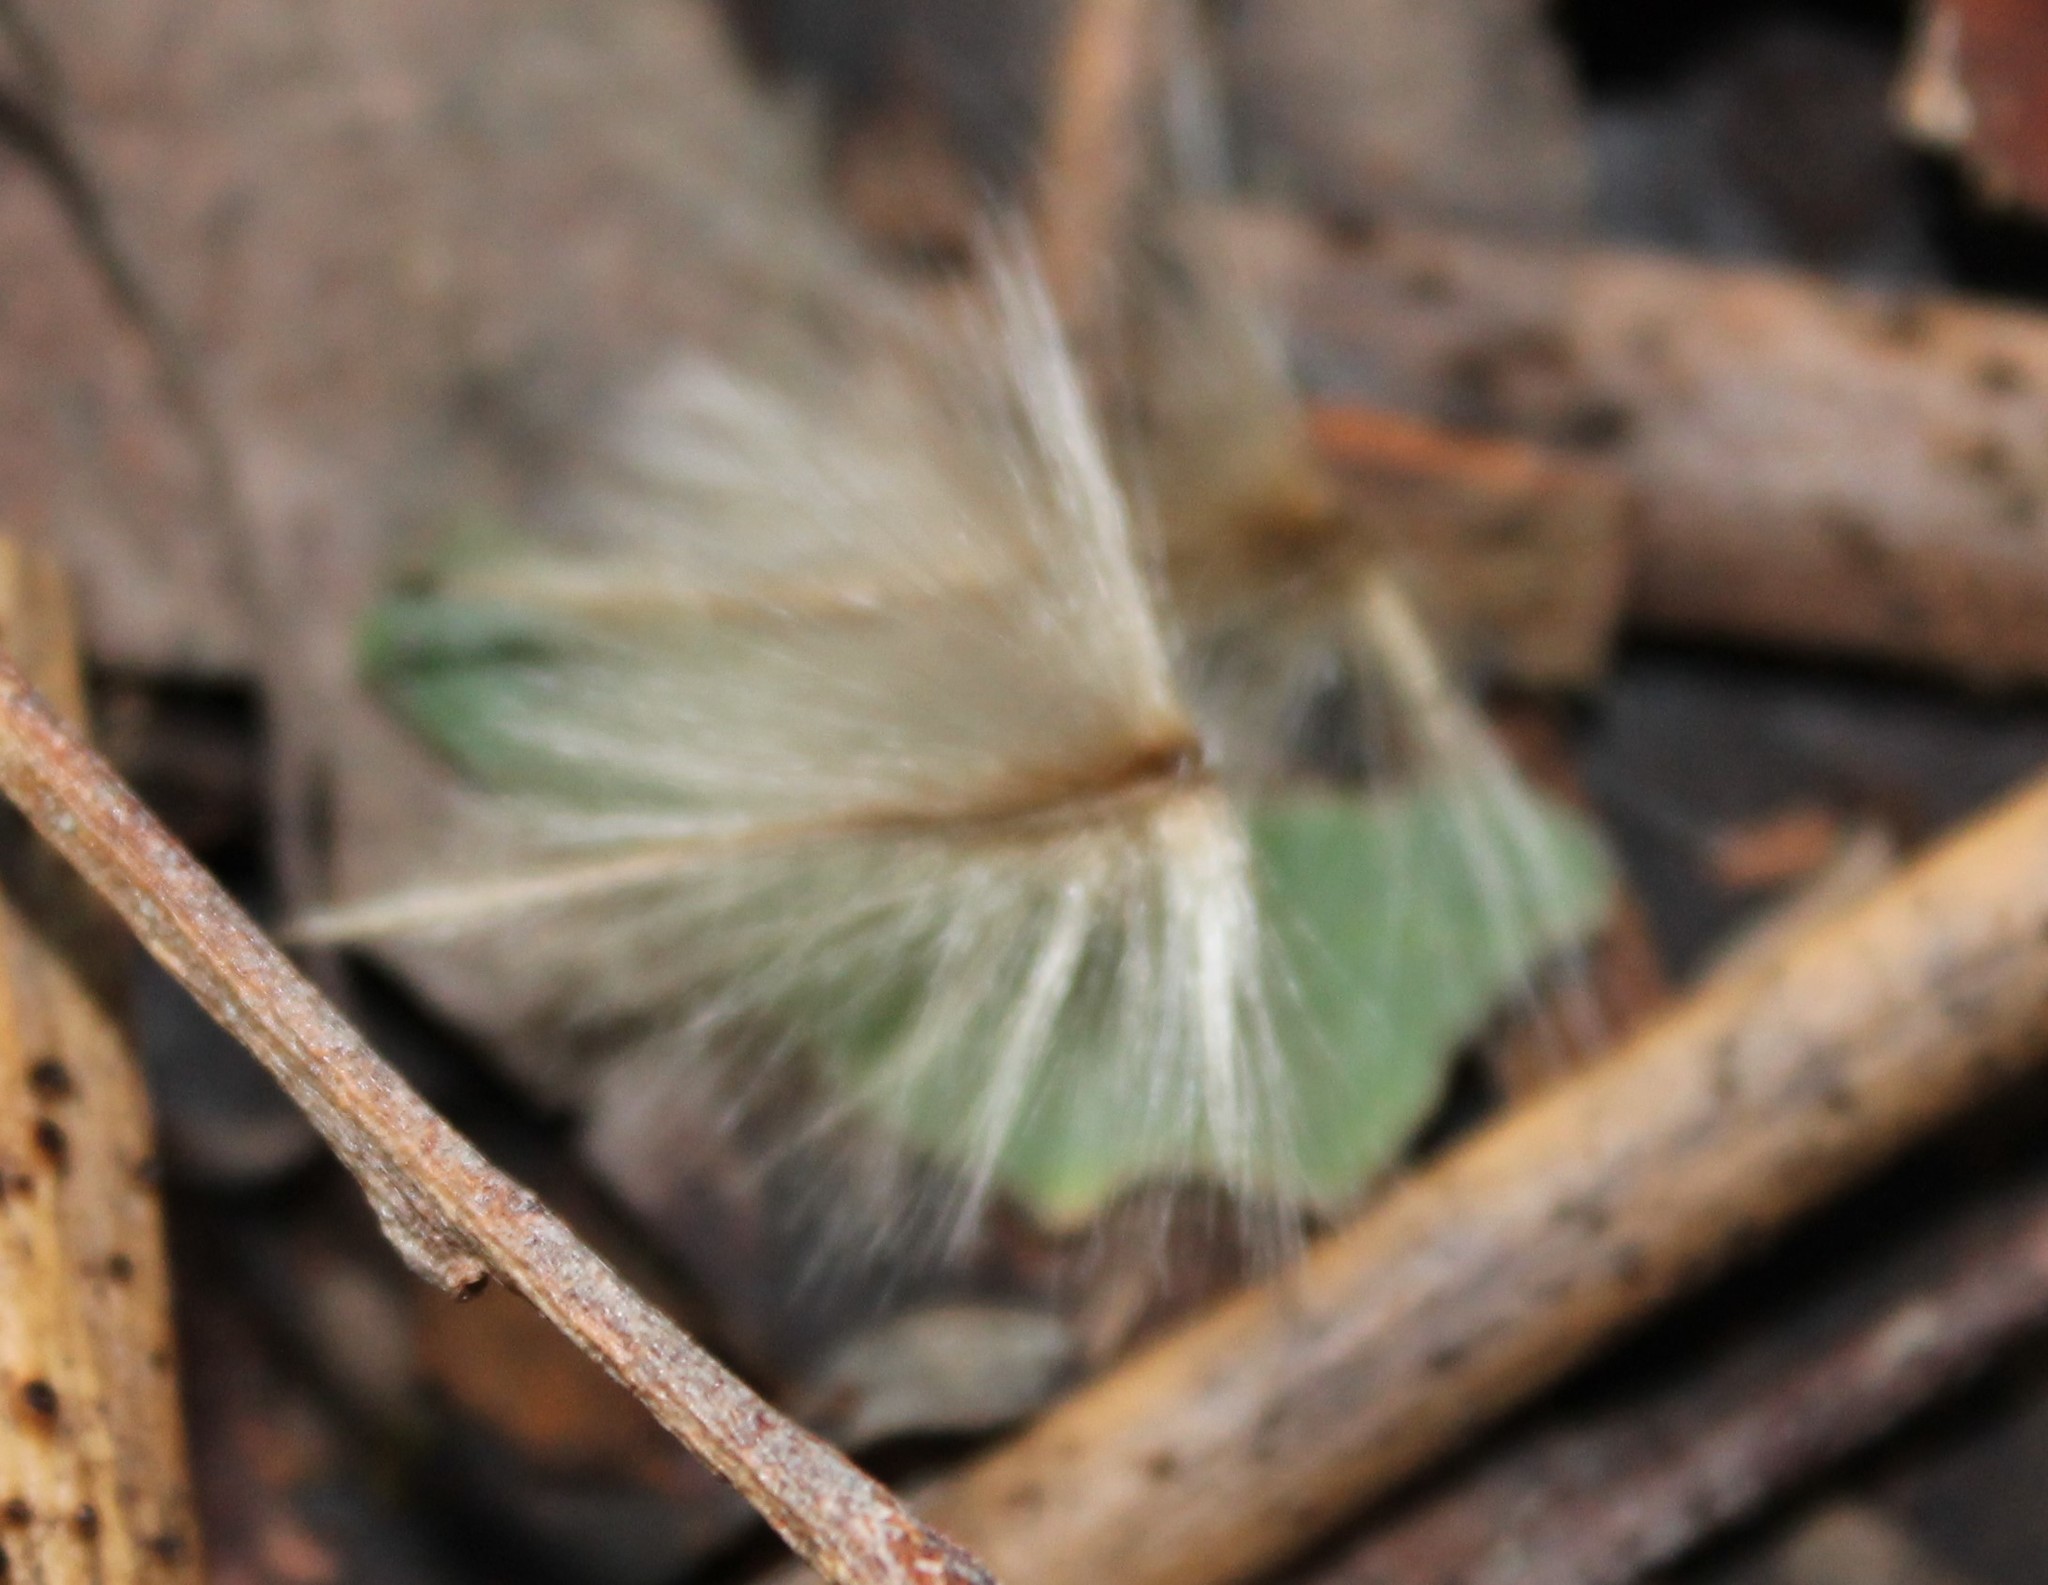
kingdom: Plantae
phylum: Tracheophyta
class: Magnoliopsida
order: Laurales
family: Atherospermataceae
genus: Laurelia
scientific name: Laurelia novae-zelandiae
